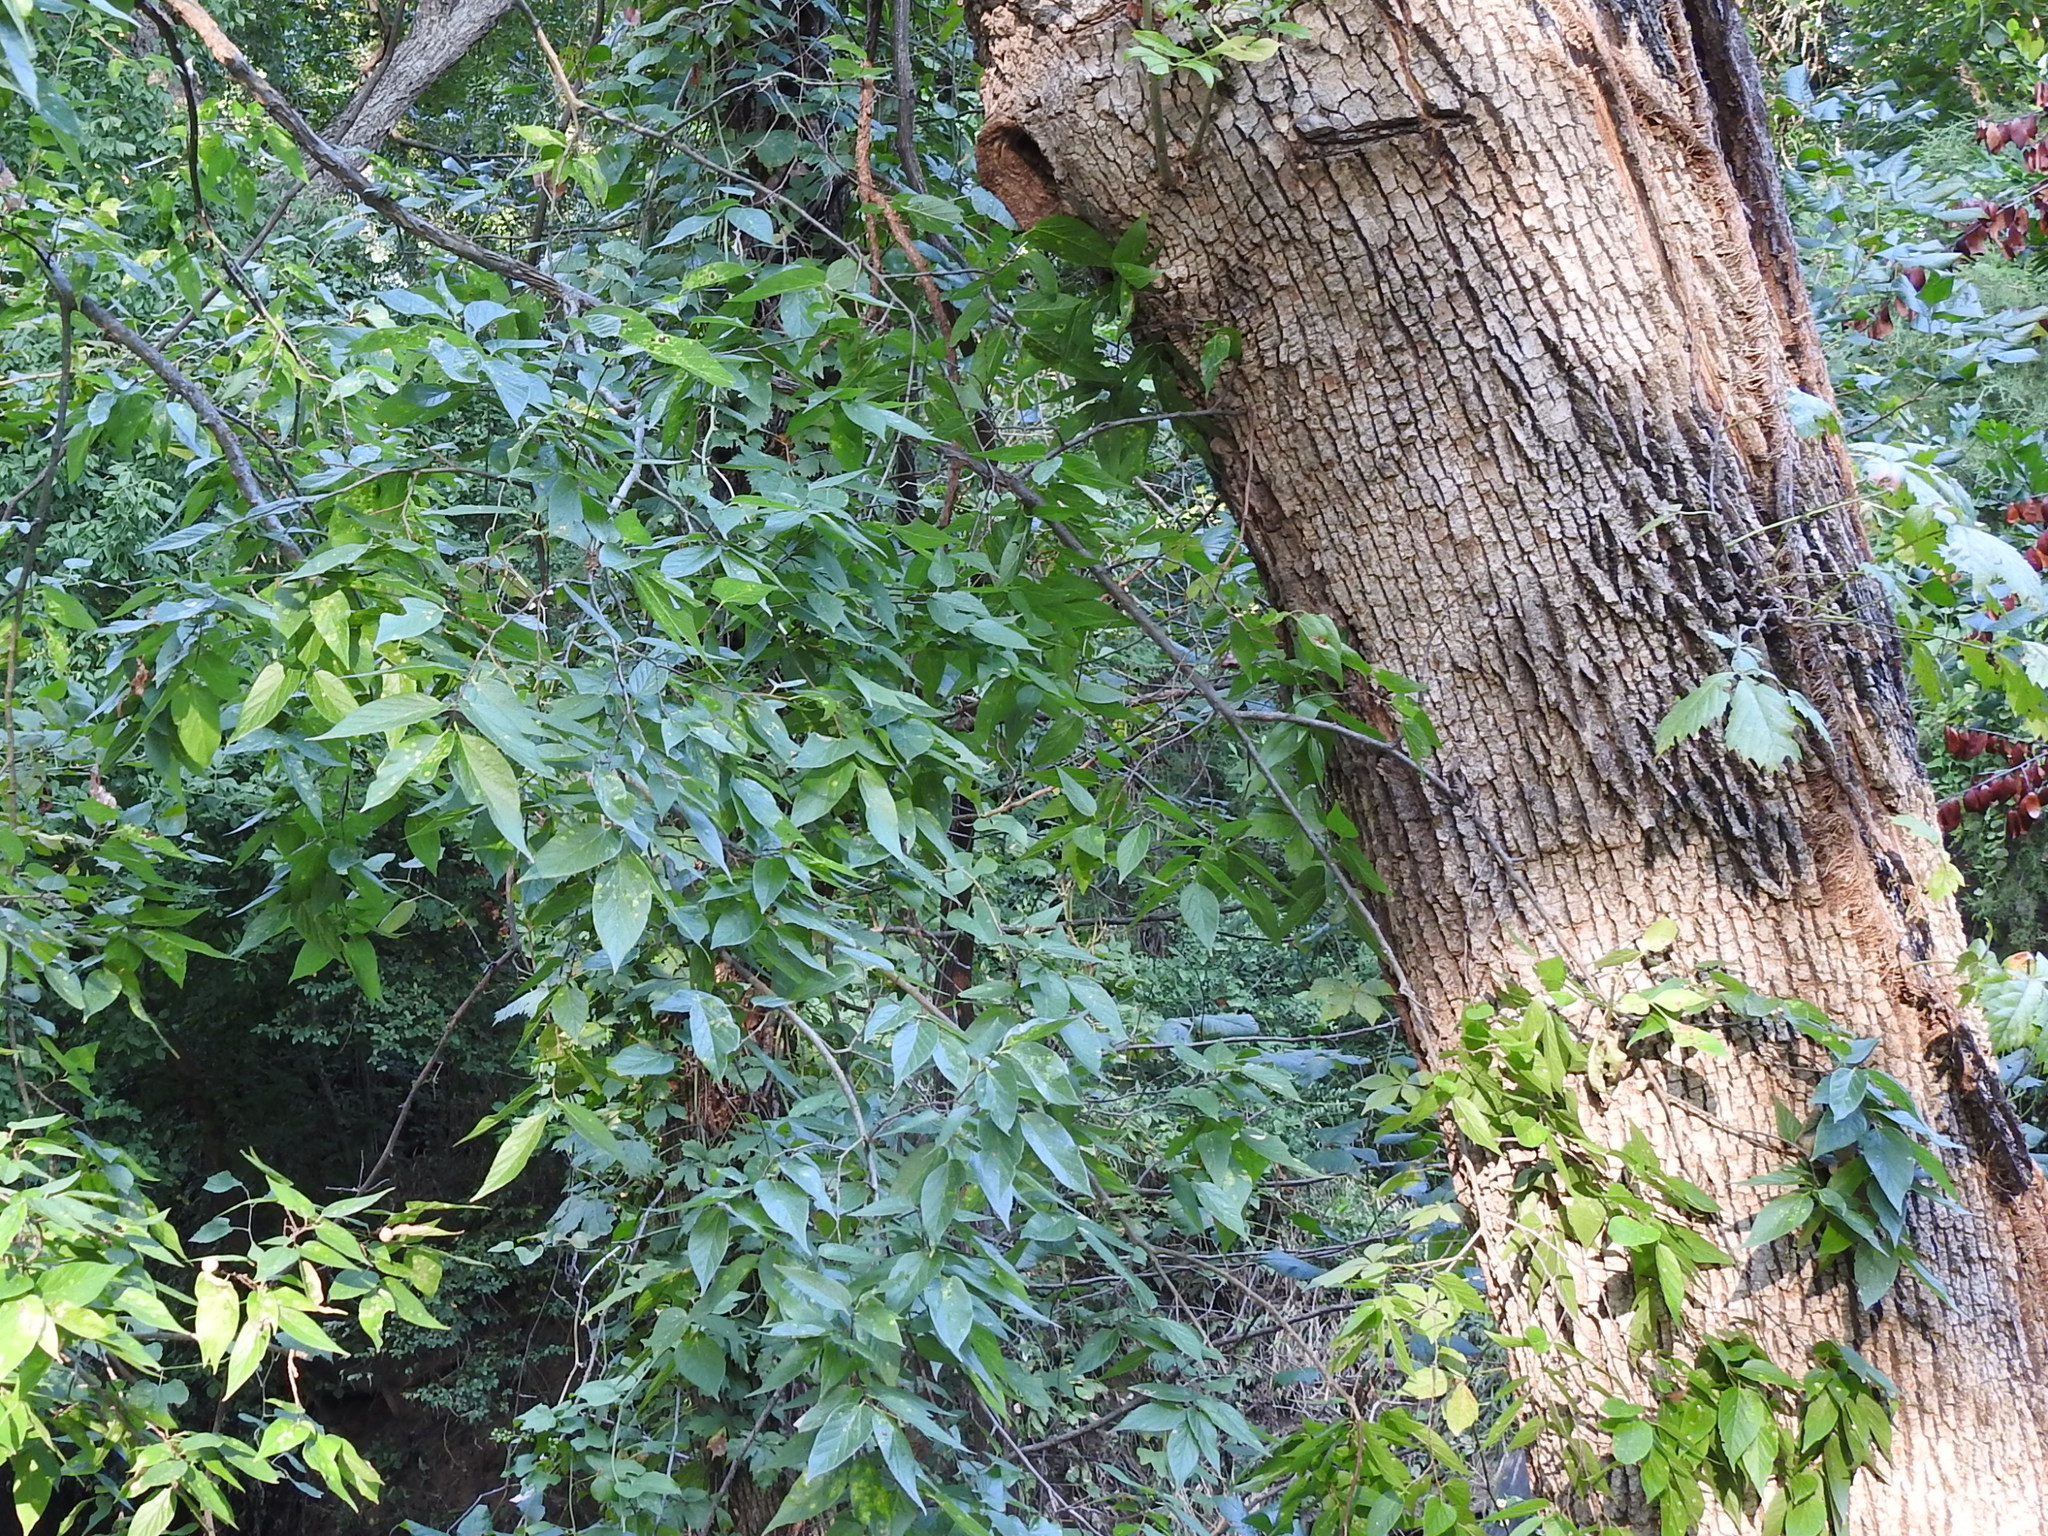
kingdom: Plantae
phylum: Tracheophyta
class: Magnoliopsida
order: Rosales
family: Cannabaceae
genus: Celtis
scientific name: Celtis laevigata
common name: Sugarberry
